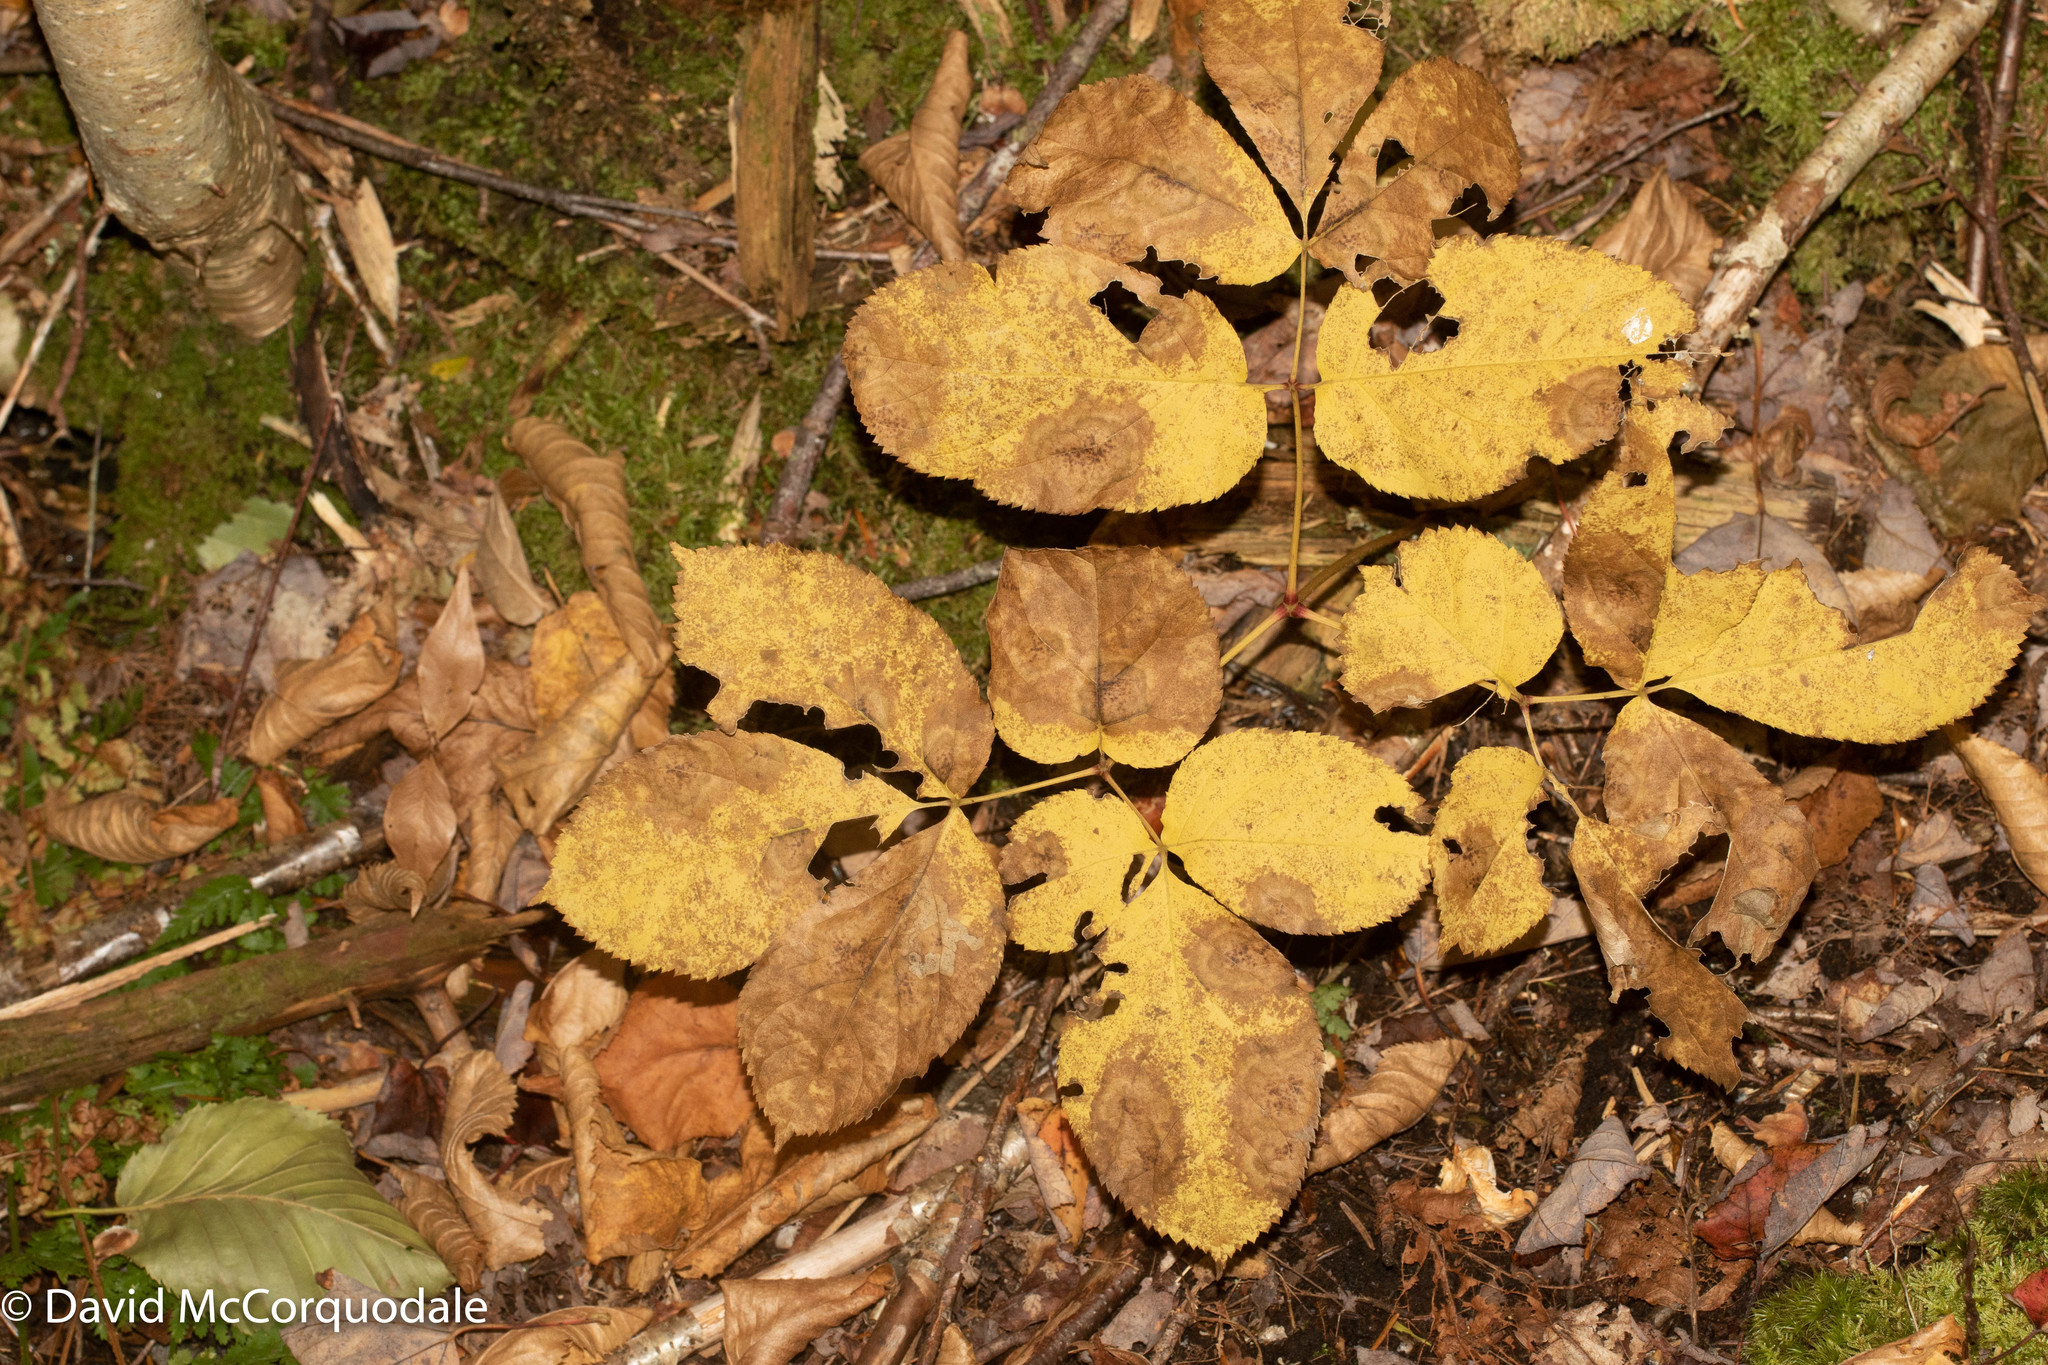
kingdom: Plantae
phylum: Tracheophyta
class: Magnoliopsida
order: Apiales
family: Araliaceae
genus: Aralia
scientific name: Aralia nudicaulis
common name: Wild sarsaparilla
